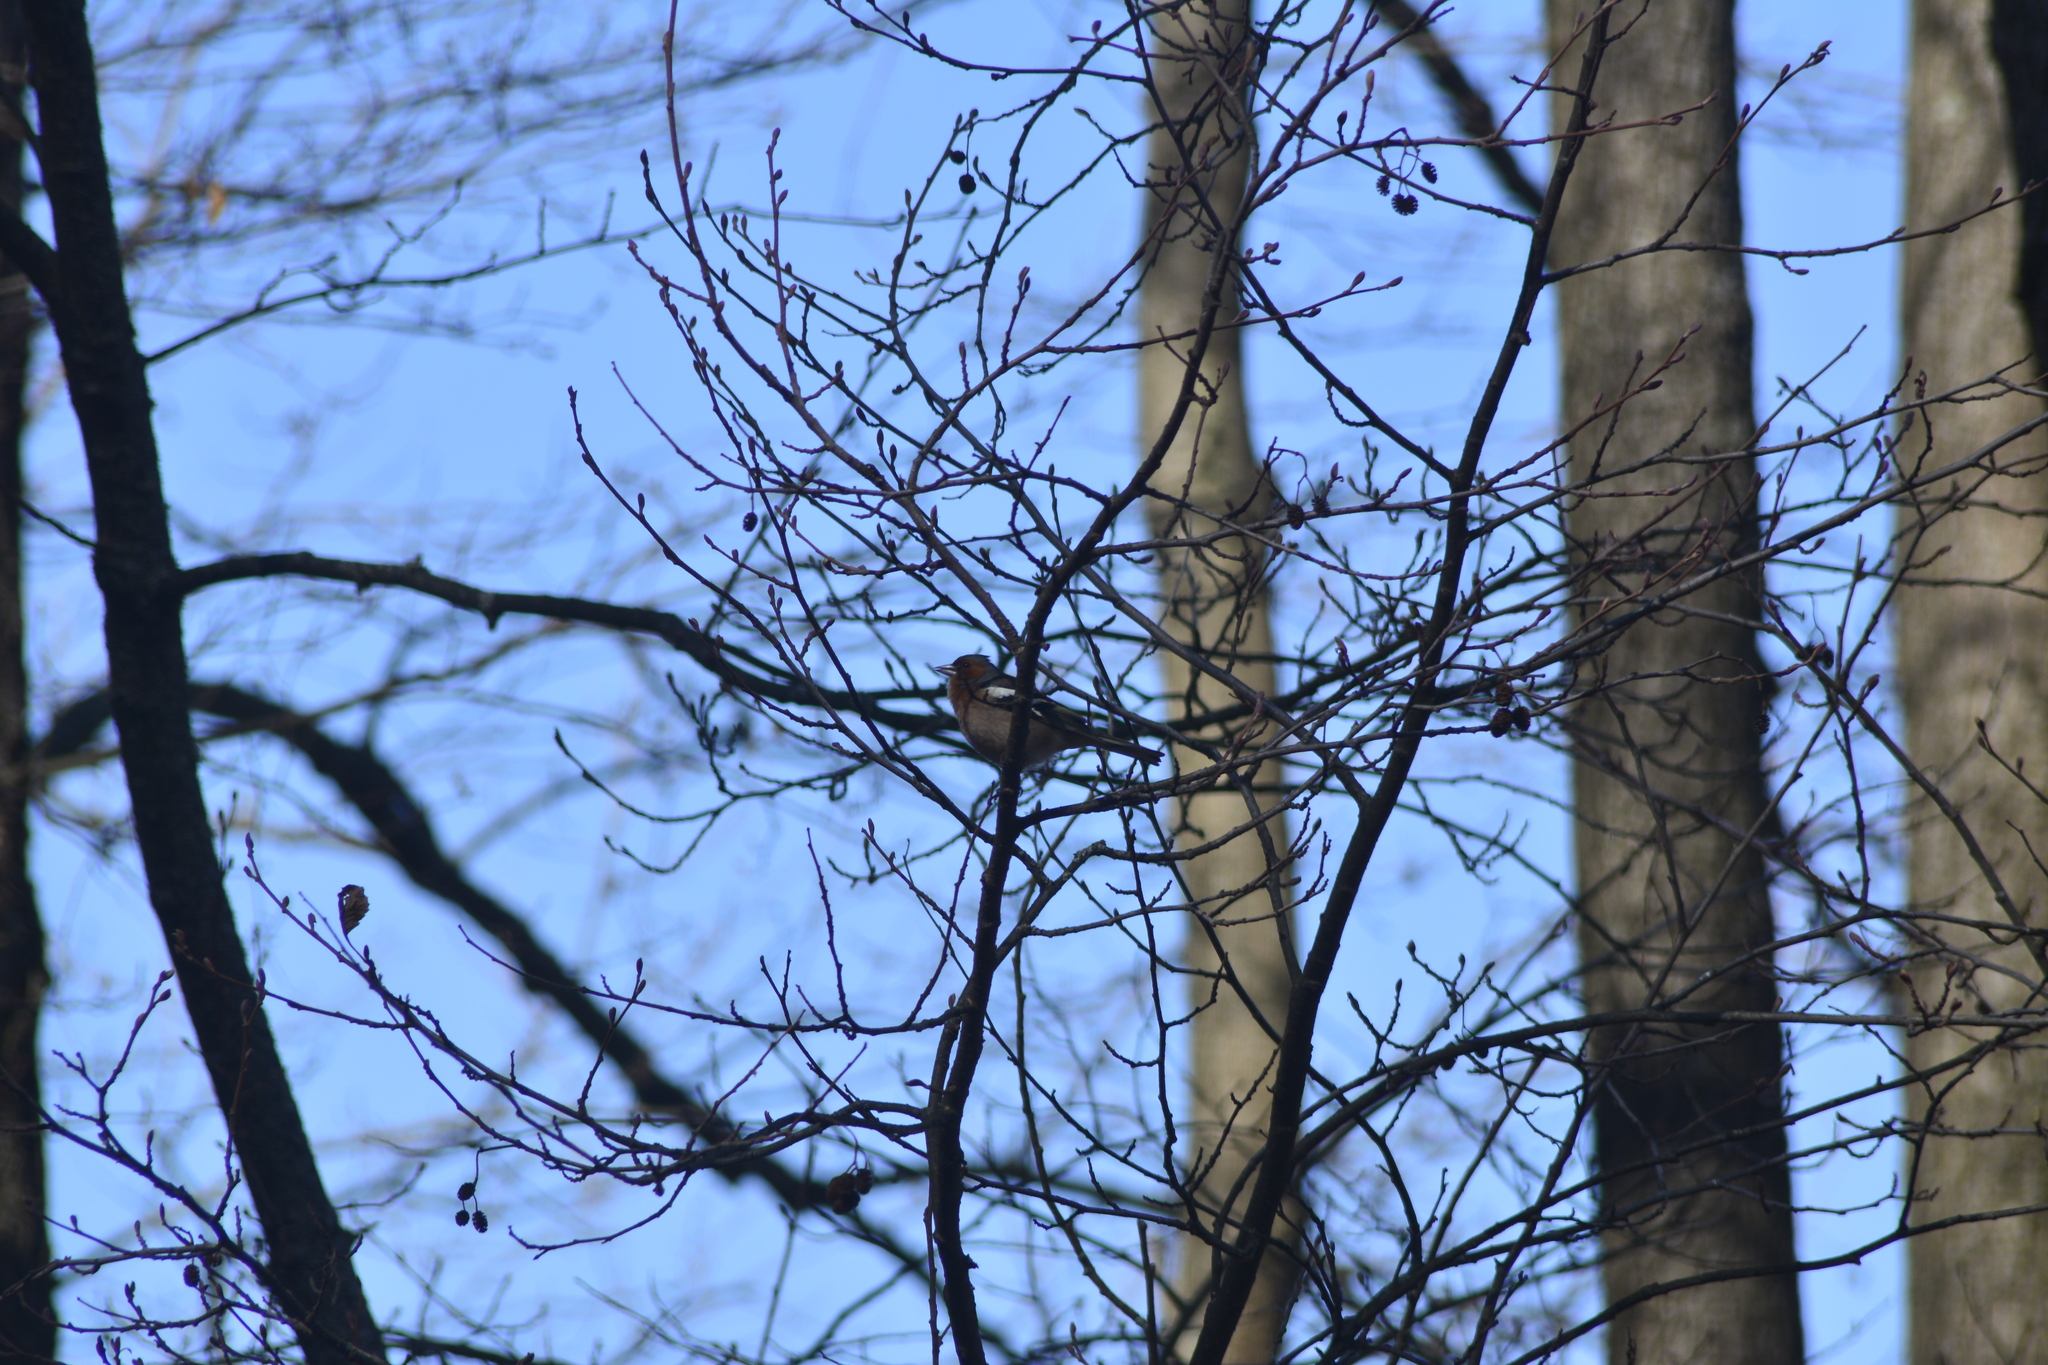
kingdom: Animalia
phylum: Chordata
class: Aves
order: Passeriformes
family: Fringillidae
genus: Fringilla
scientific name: Fringilla coelebs
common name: Common chaffinch
